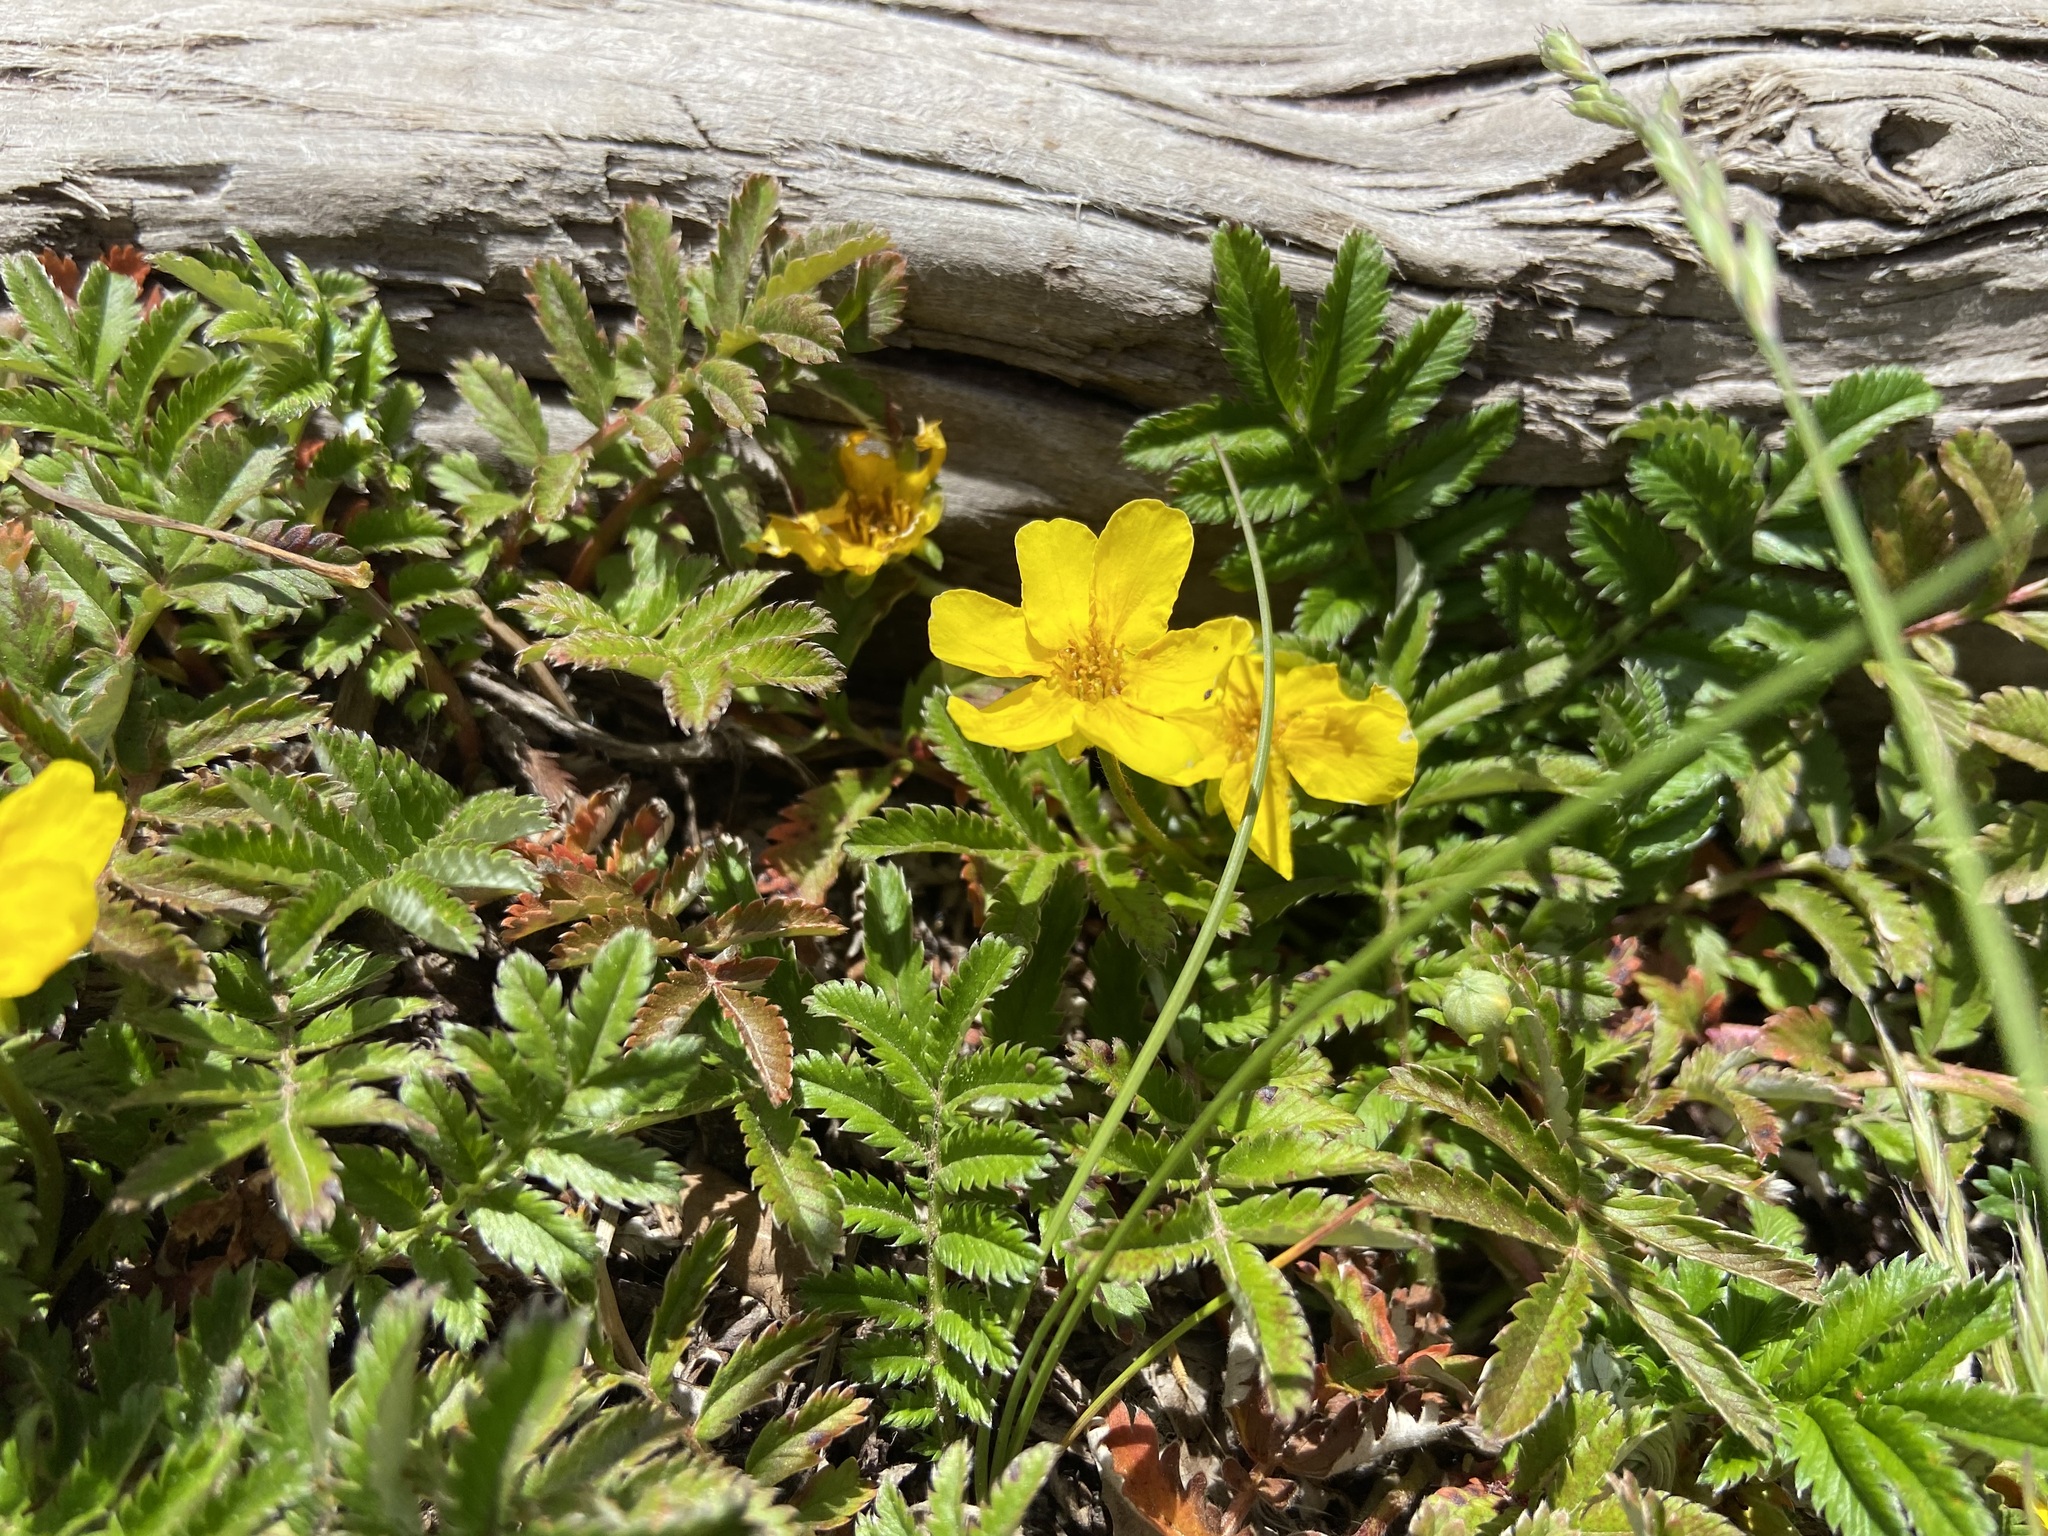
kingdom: Plantae
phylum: Tracheophyta
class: Magnoliopsida
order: Rosales
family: Rosaceae
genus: Argentina
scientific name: Argentina anserina
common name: Common silverweed
